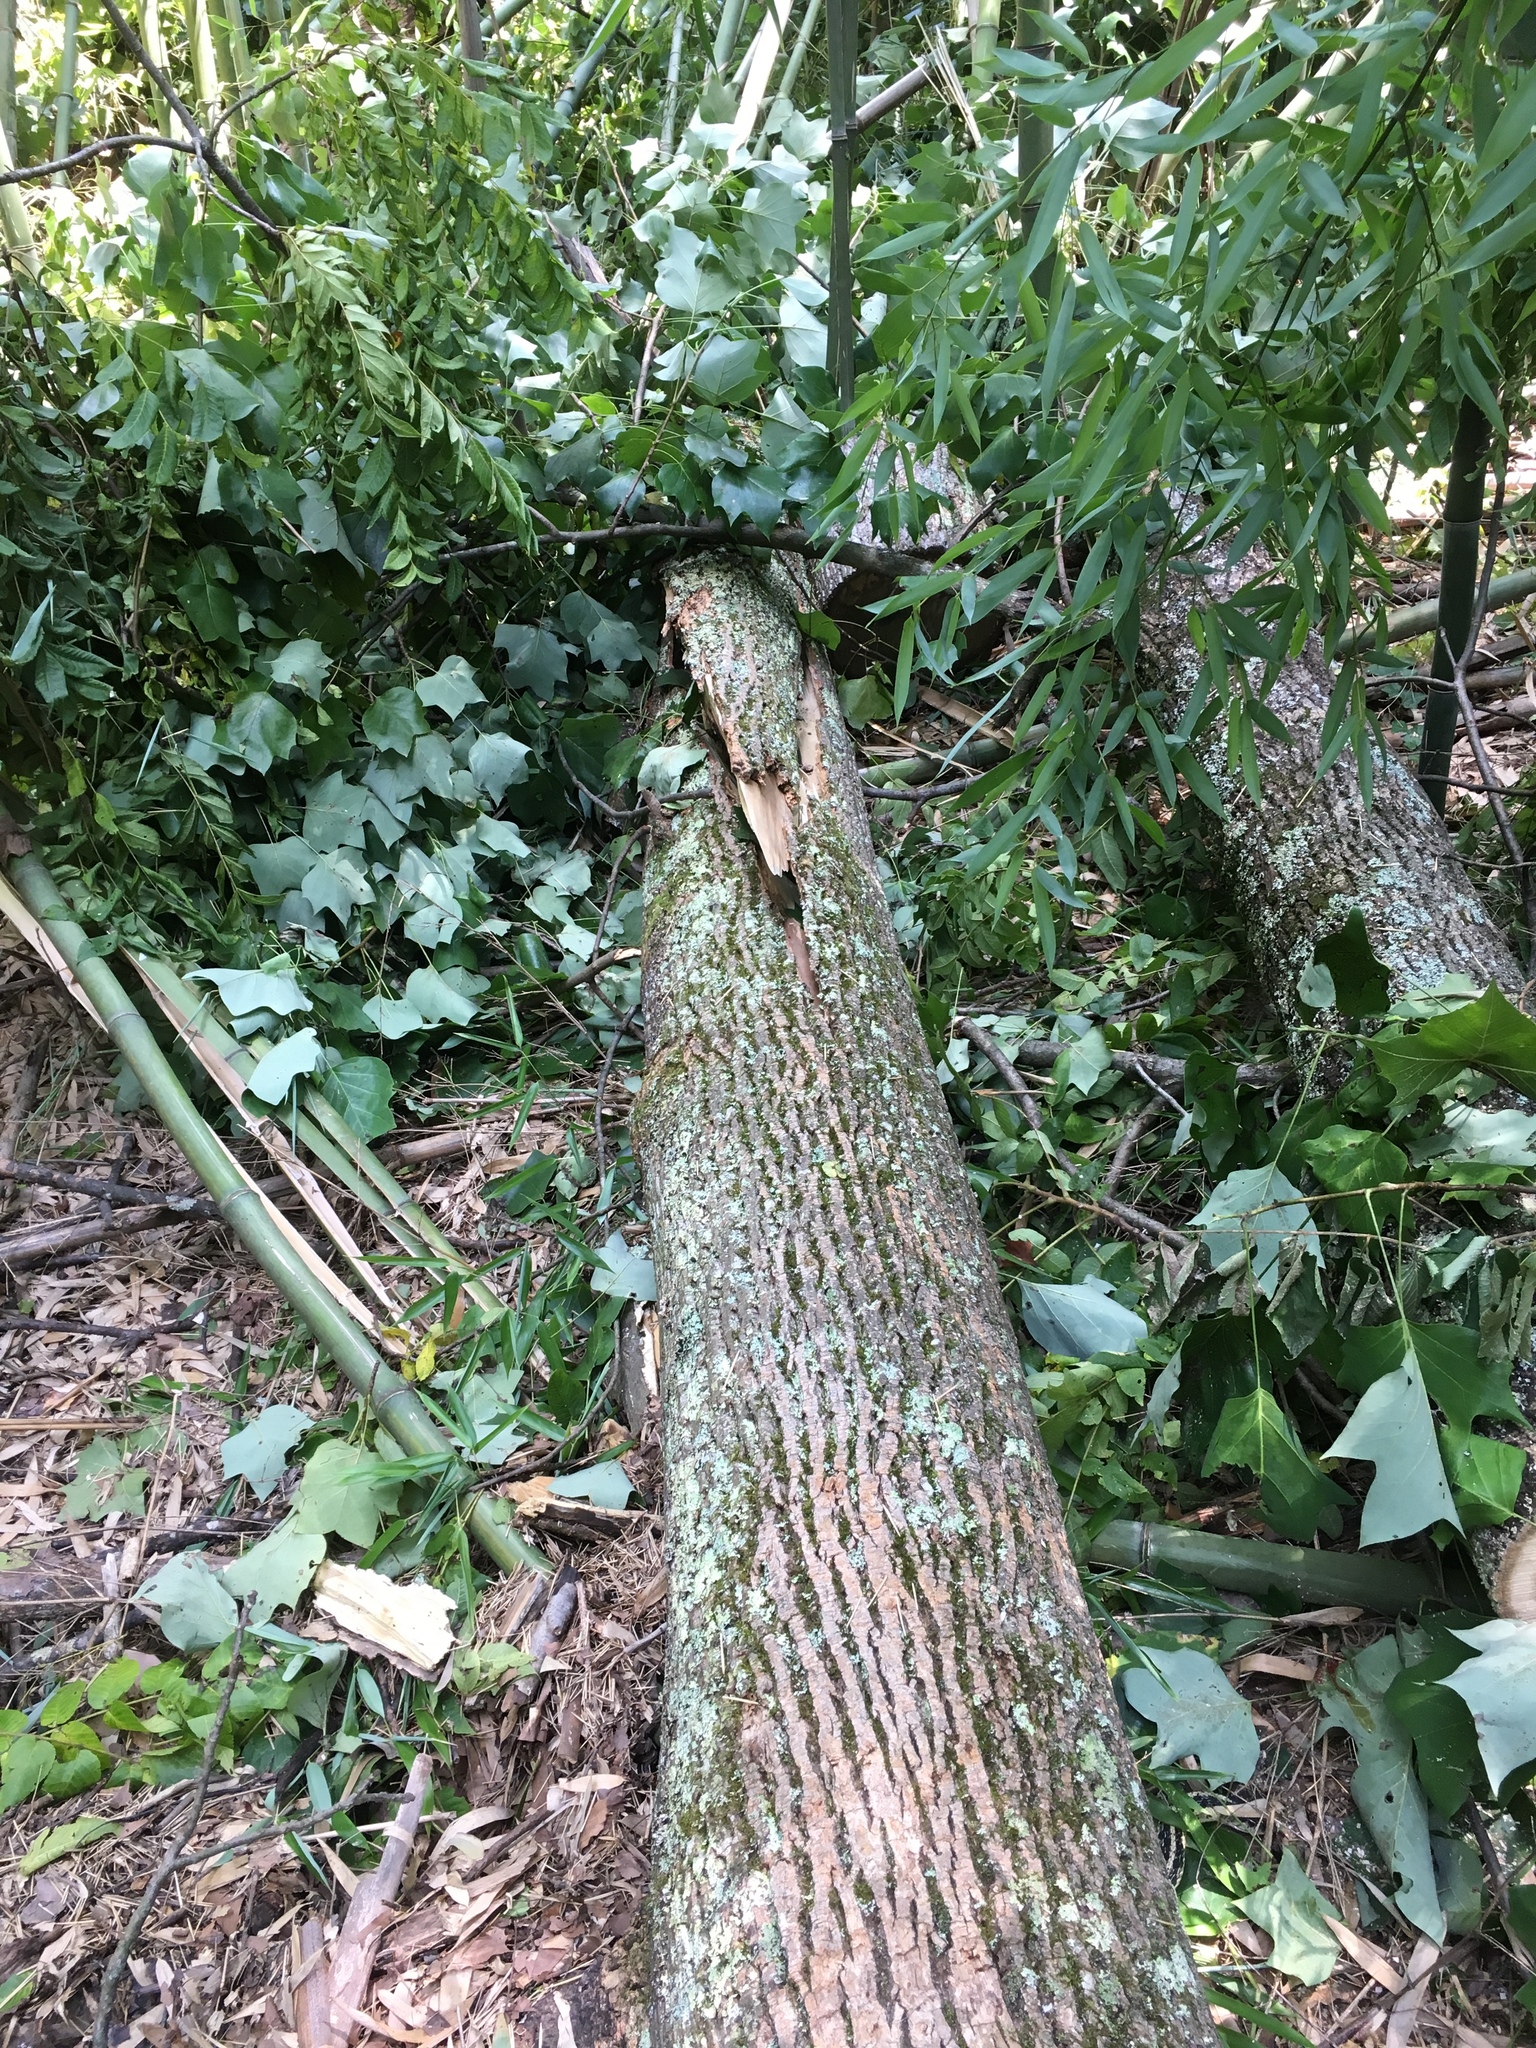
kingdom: Plantae
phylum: Tracheophyta
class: Magnoliopsida
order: Magnoliales
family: Magnoliaceae
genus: Liriodendron
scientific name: Liriodendron tulipifera
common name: Tulip tree
